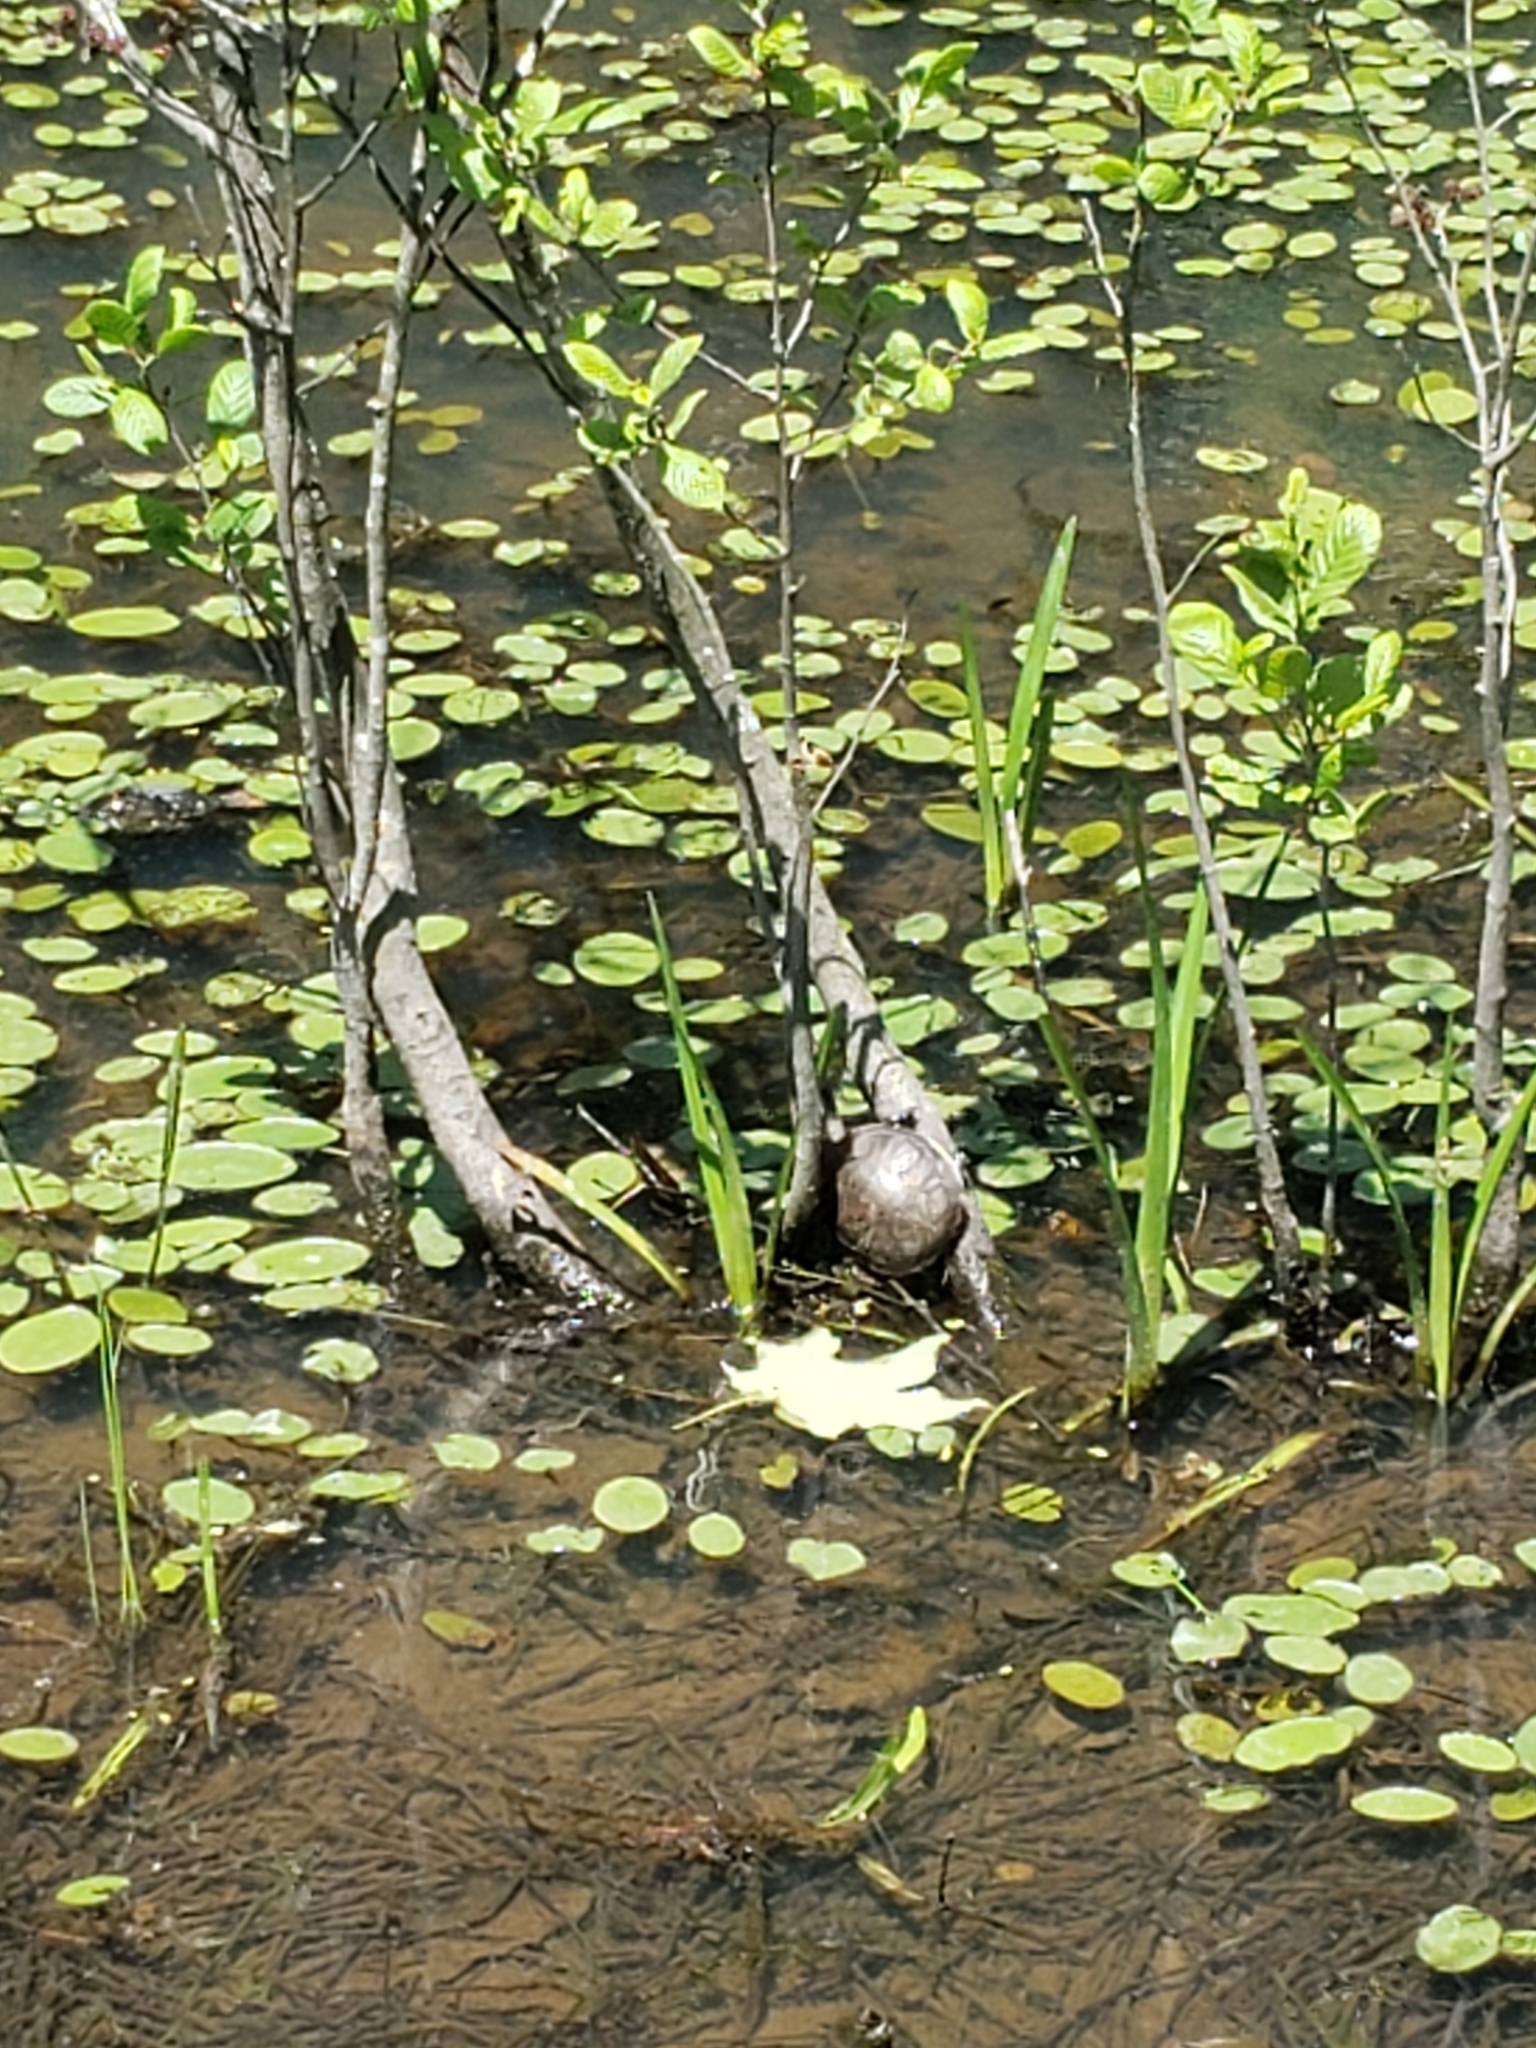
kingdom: Animalia
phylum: Chordata
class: Testudines
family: Emydidae
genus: Trachemys
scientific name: Trachemys scripta
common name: Slider
